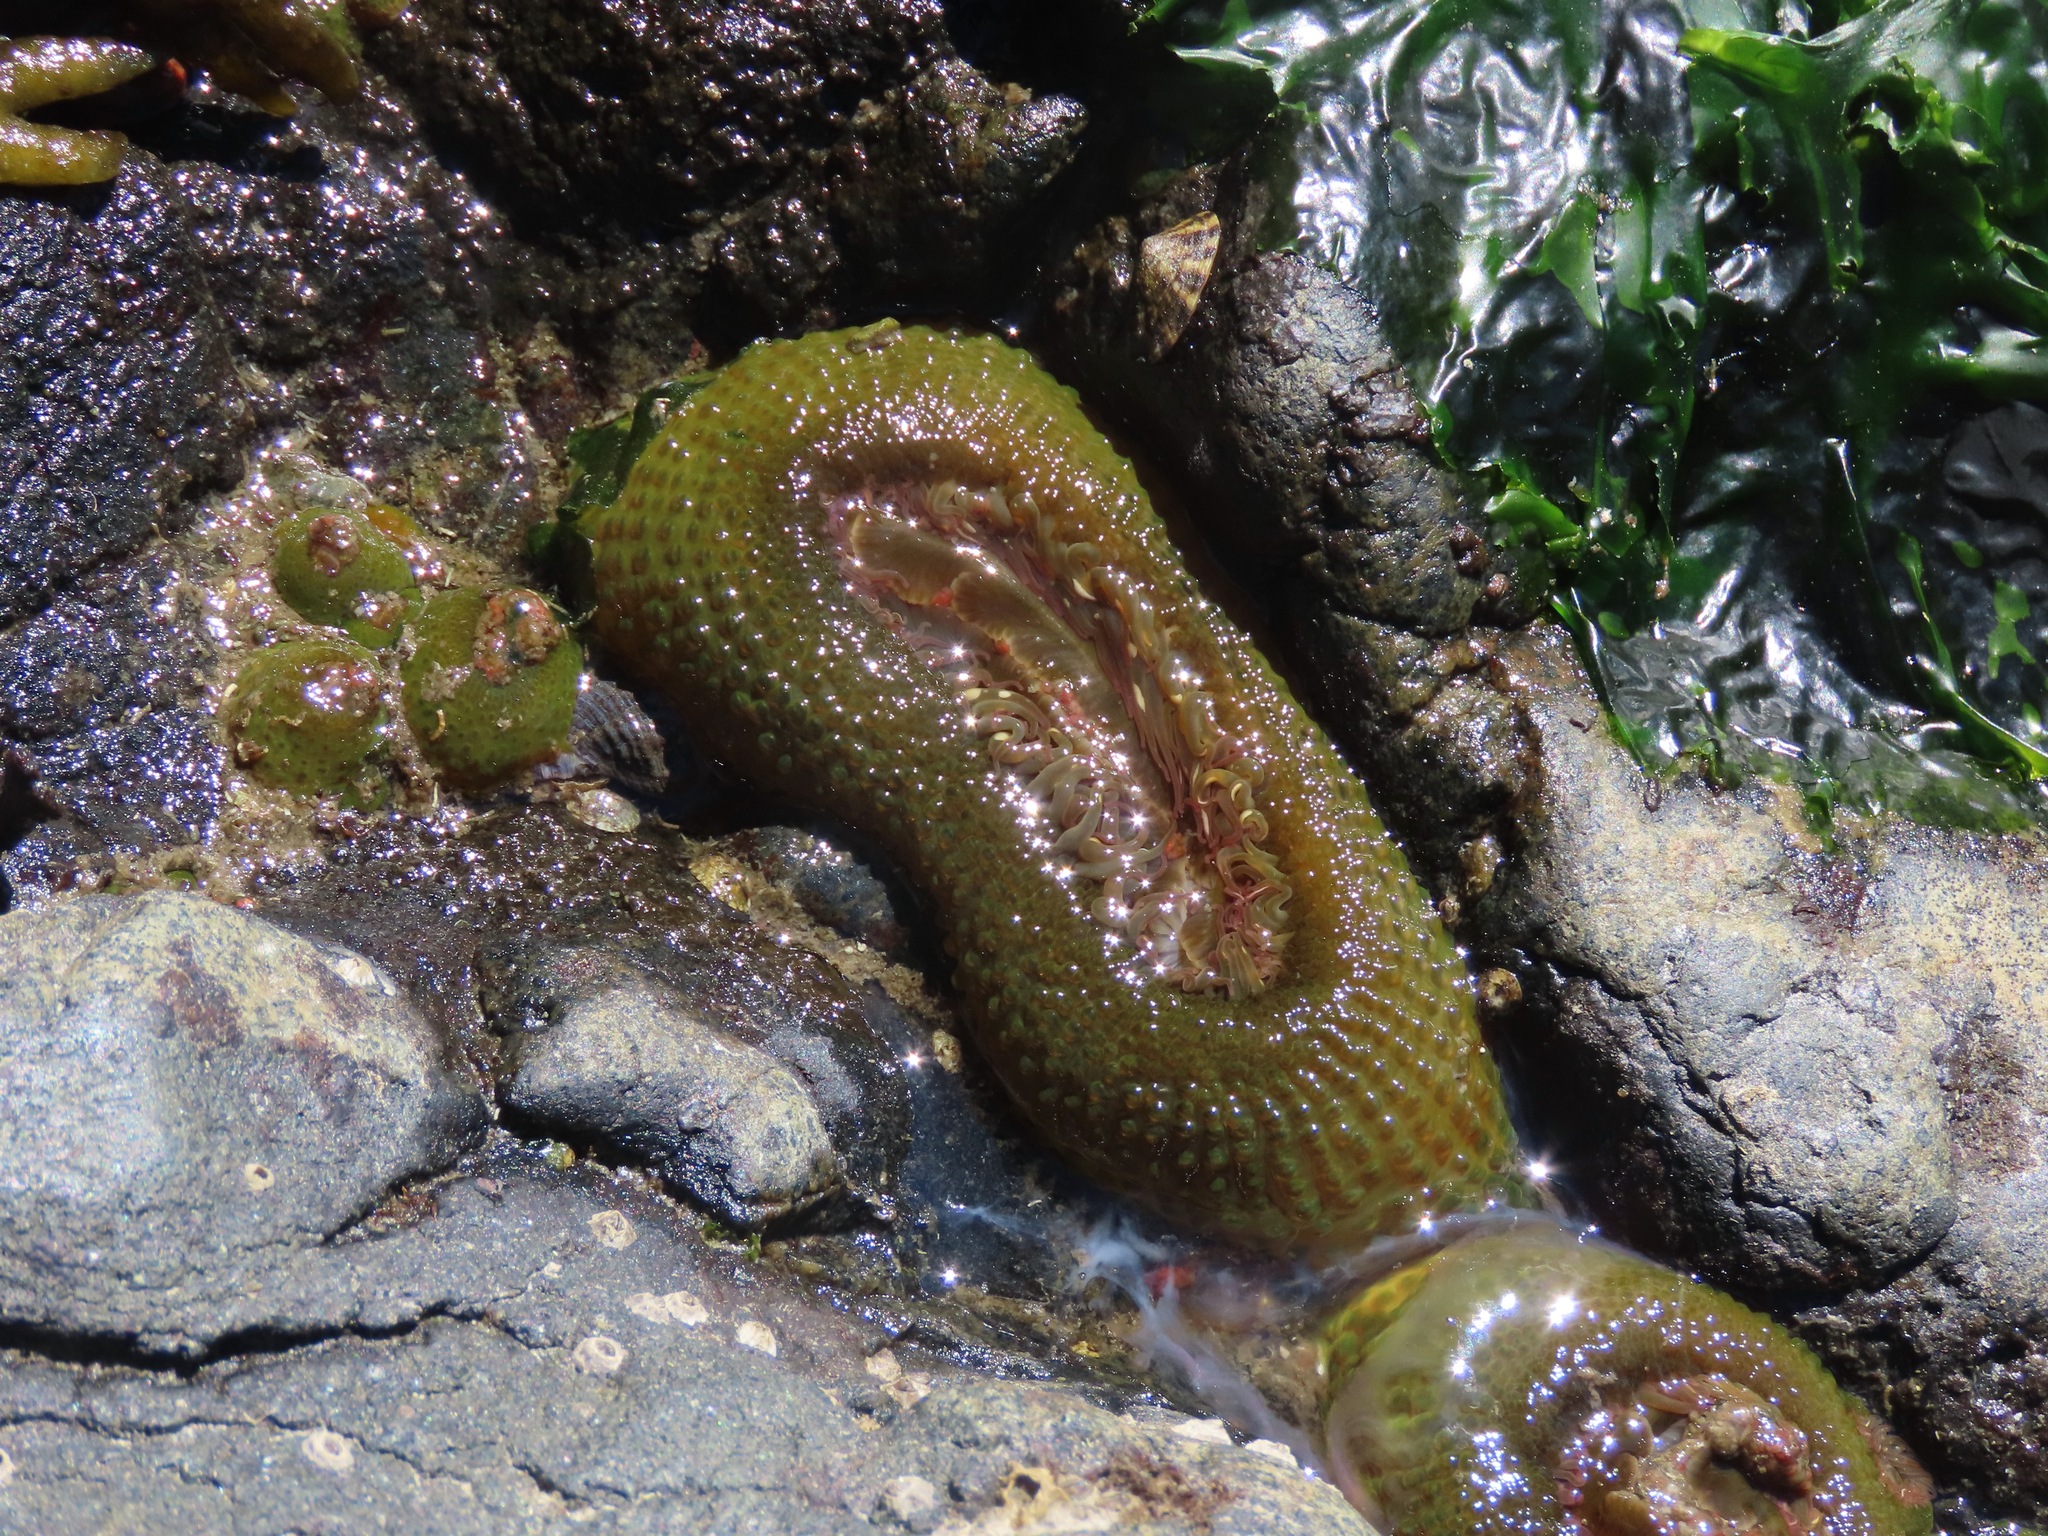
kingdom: Animalia
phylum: Cnidaria
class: Anthozoa
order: Actiniaria
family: Actiniidae
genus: Anthopleura
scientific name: Anthopleura elegantissima
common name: Clonal anemone
